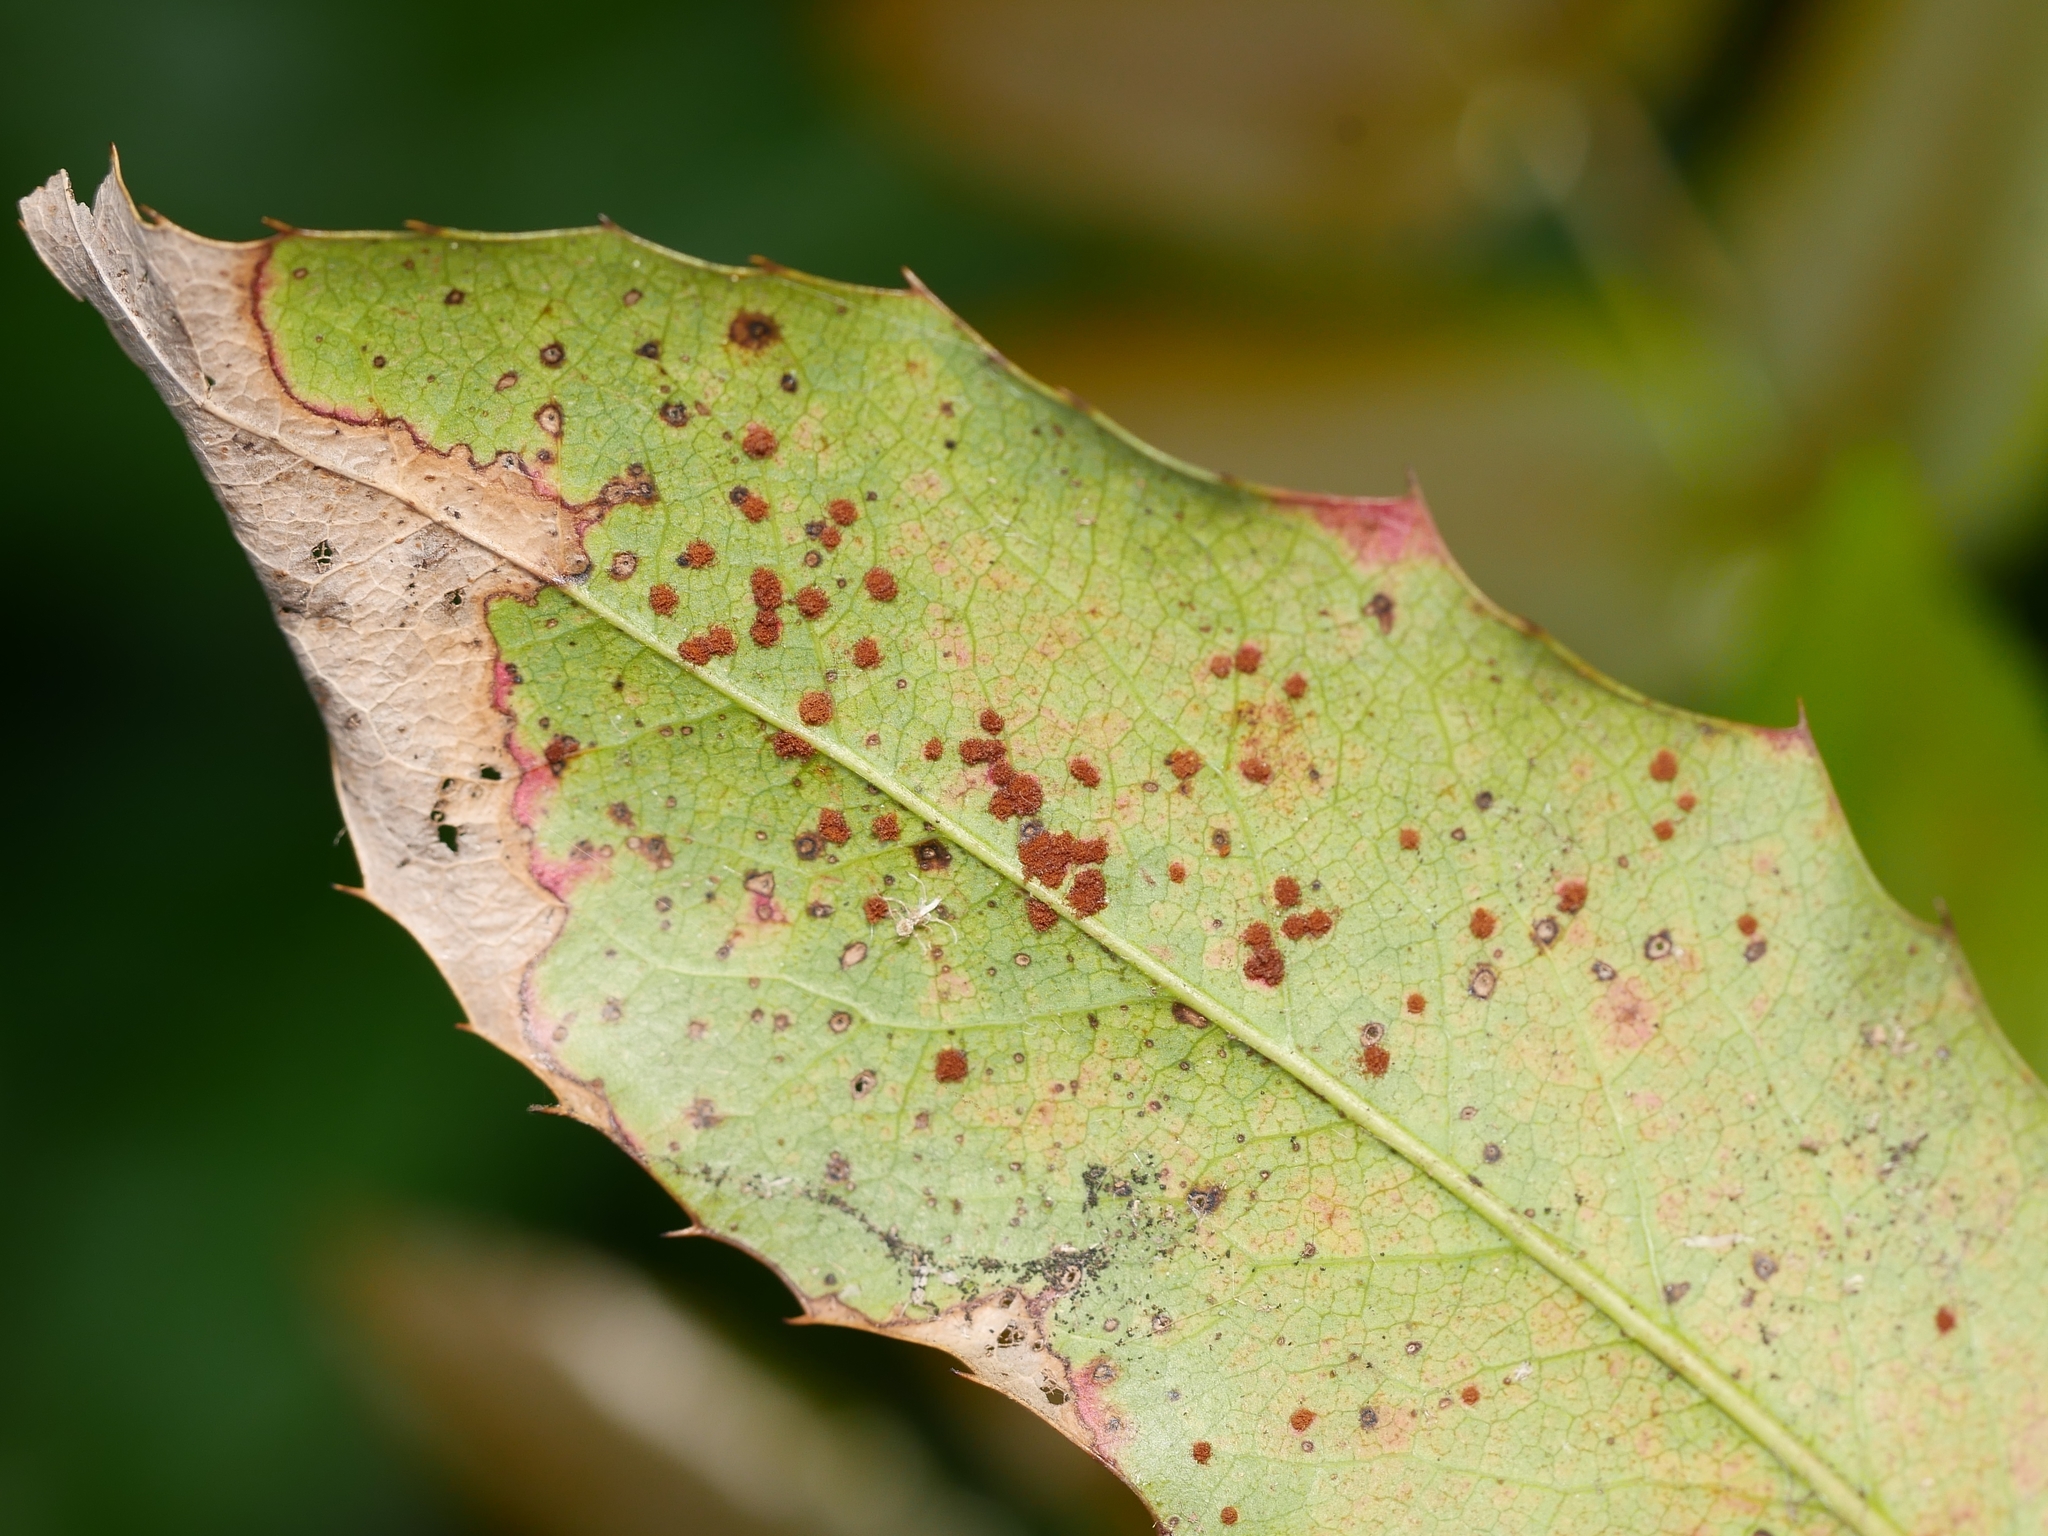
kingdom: Fungi
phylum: Basidiomycota
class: Pucciniomycetes
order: Pucciniales
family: Pucciniaceae
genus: Cumminsiella
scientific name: Cumminsiella mirabilissima
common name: Mahonia rust
